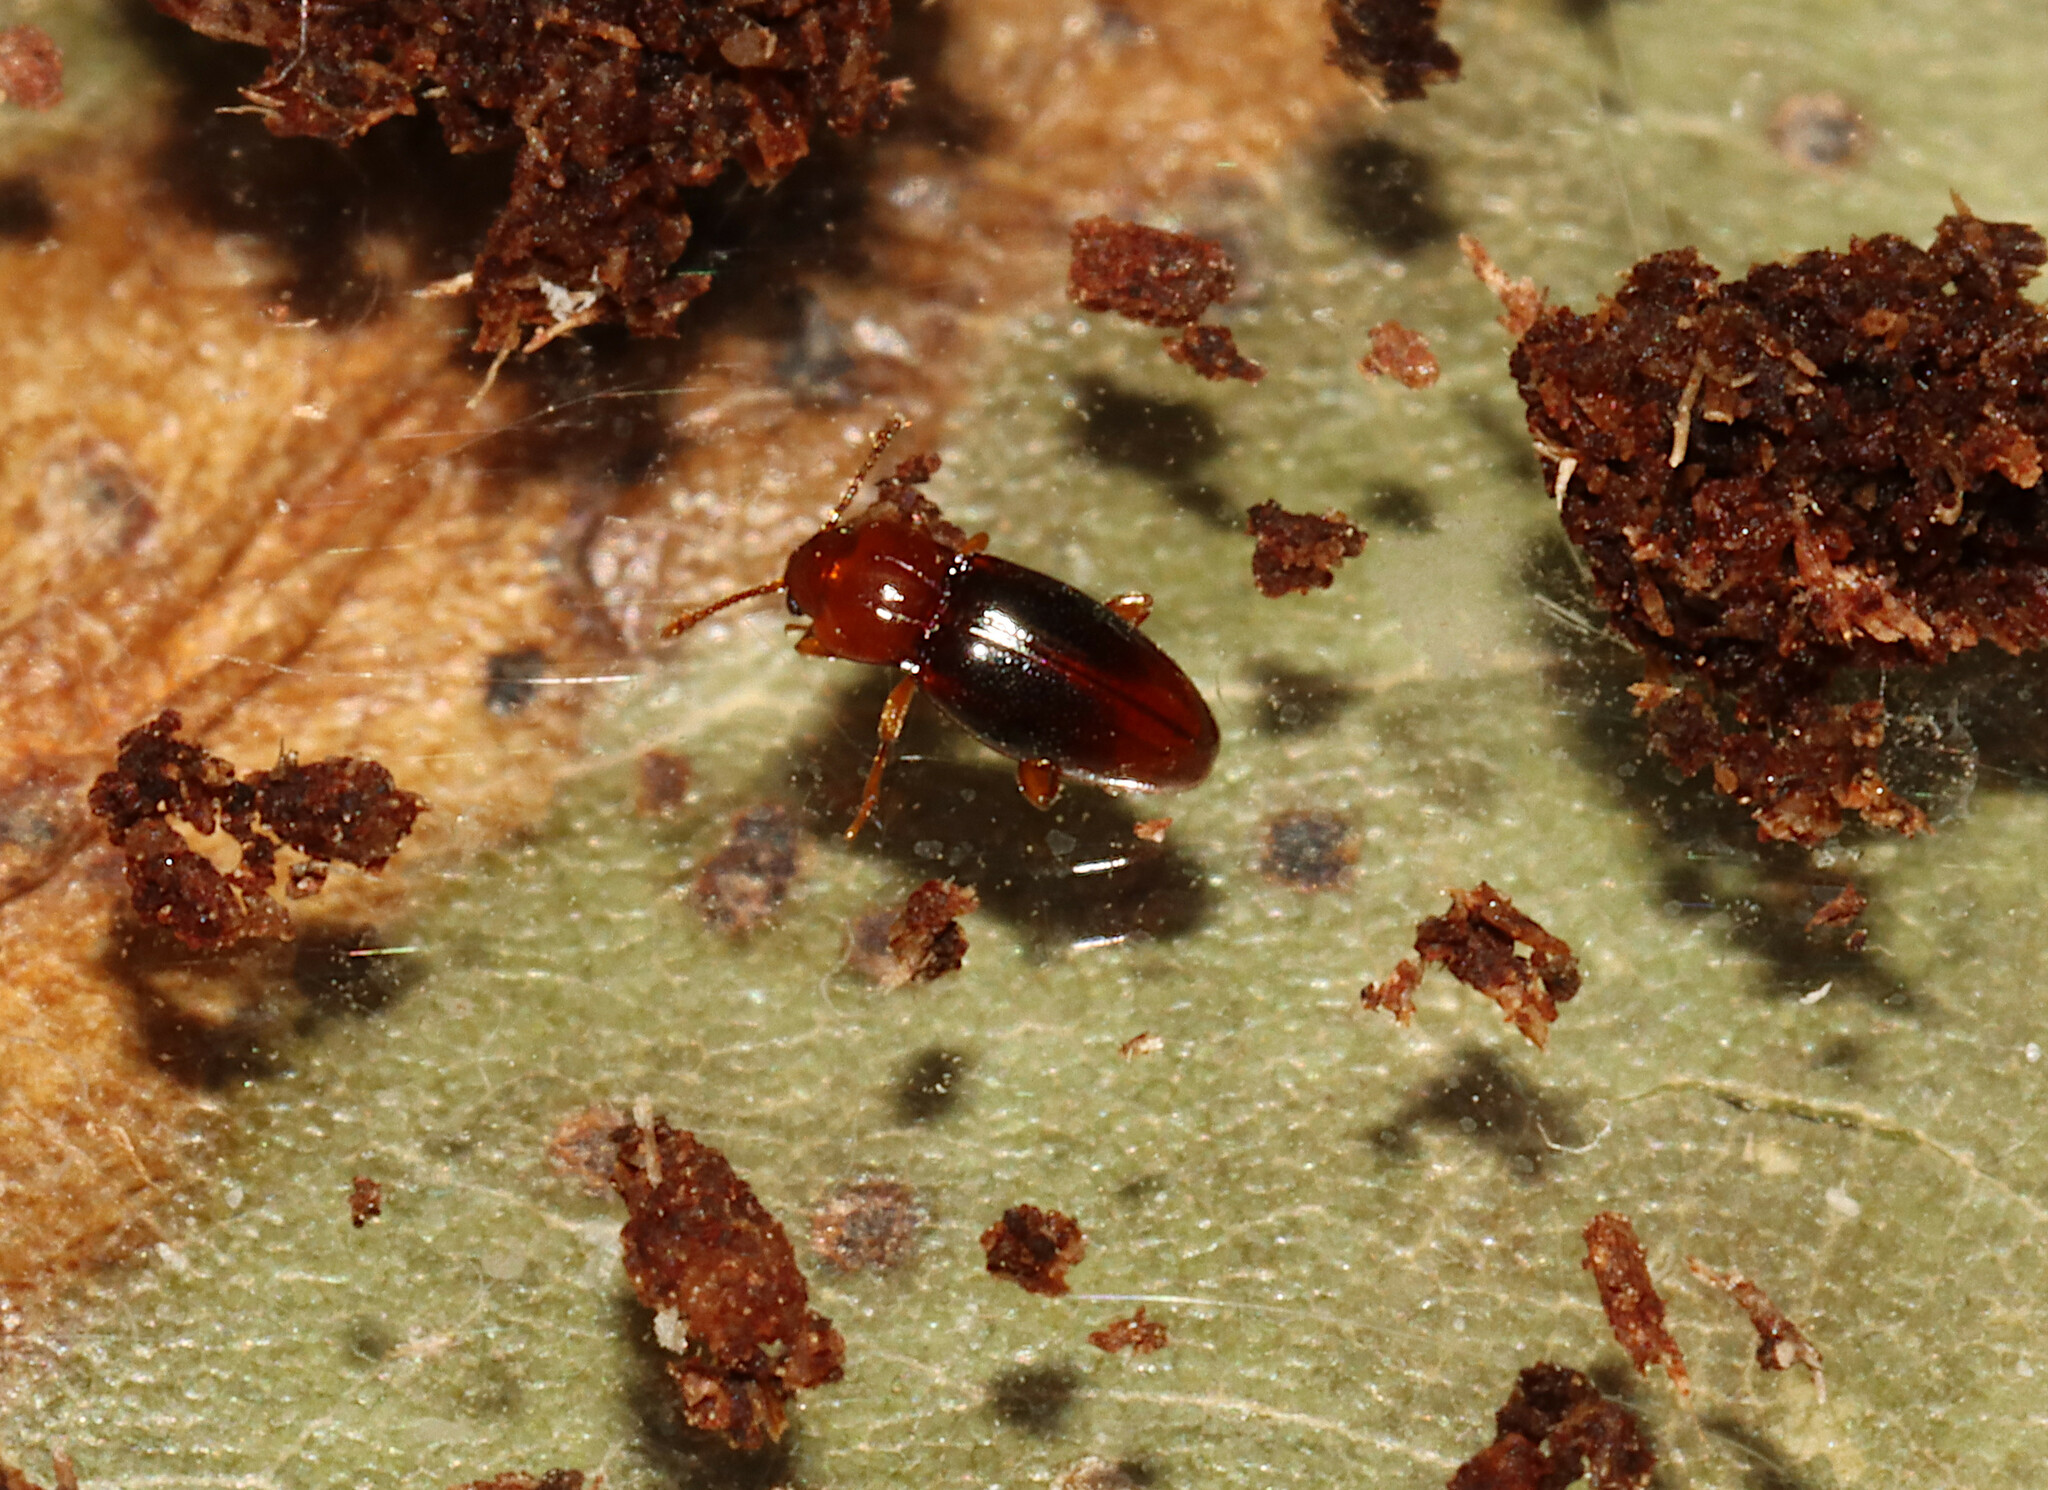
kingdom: Animalia
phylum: Arthropoda
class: Insecta
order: Coleoptera
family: Endomychidae
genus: Rhanidea
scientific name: Rhanidea unicolor
